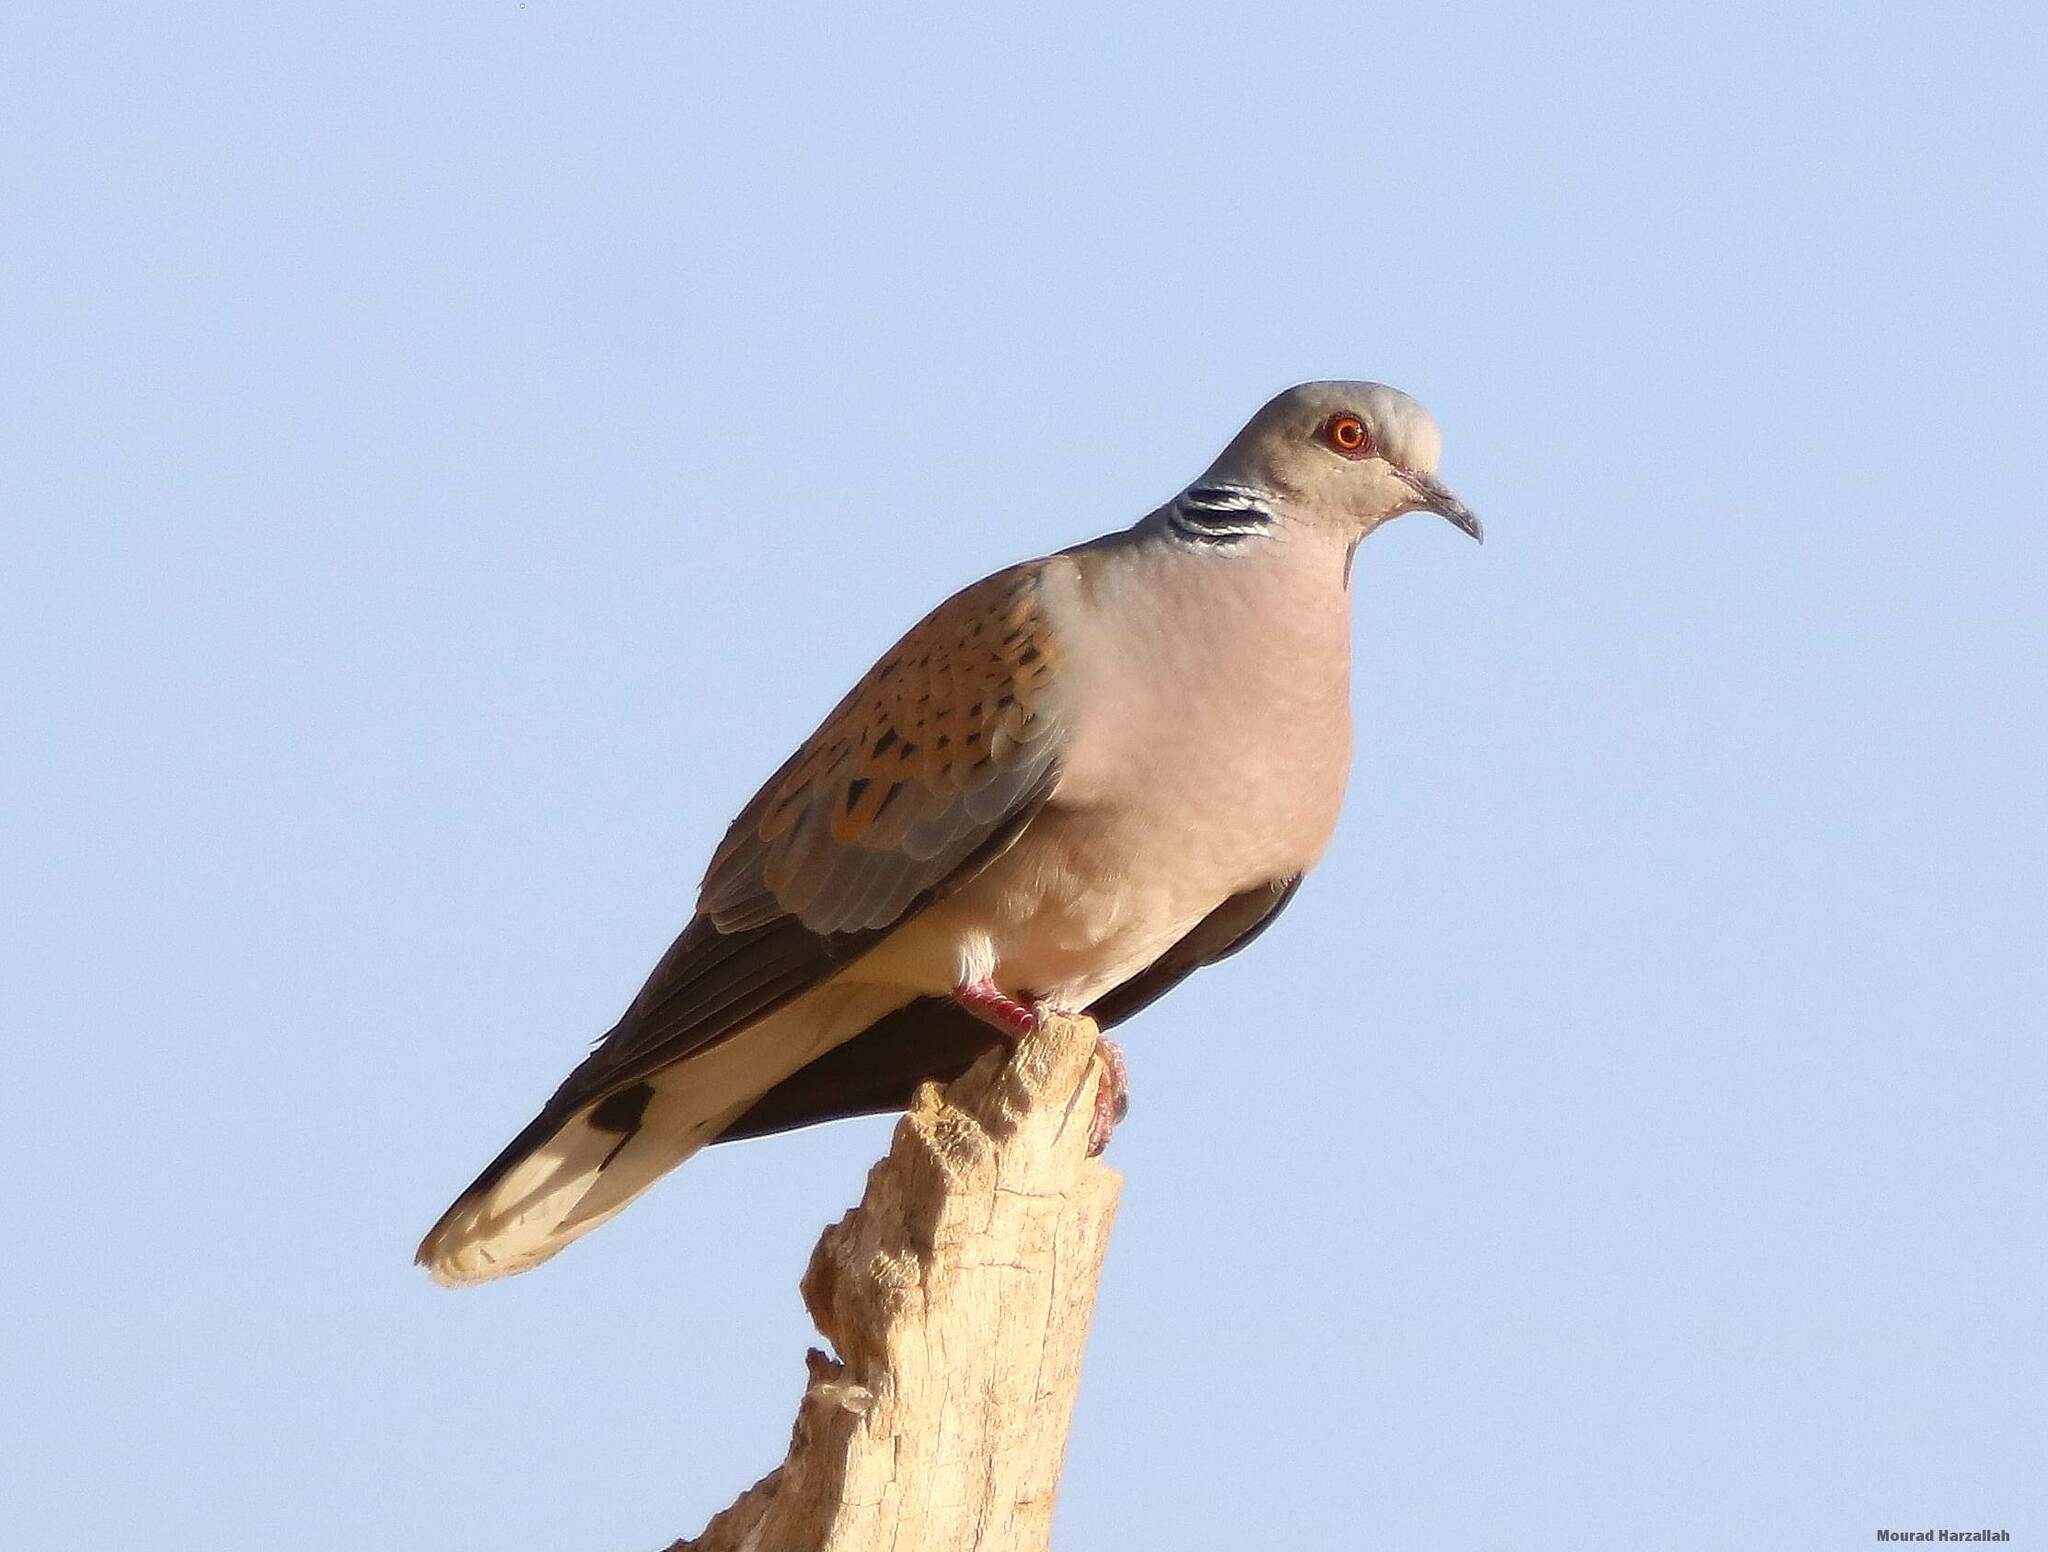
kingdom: Animalia
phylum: Chordata
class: Aves
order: Columbiformes
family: Columbidae
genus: Streptopelia
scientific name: Streptopelia turtur
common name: European turtle dove
